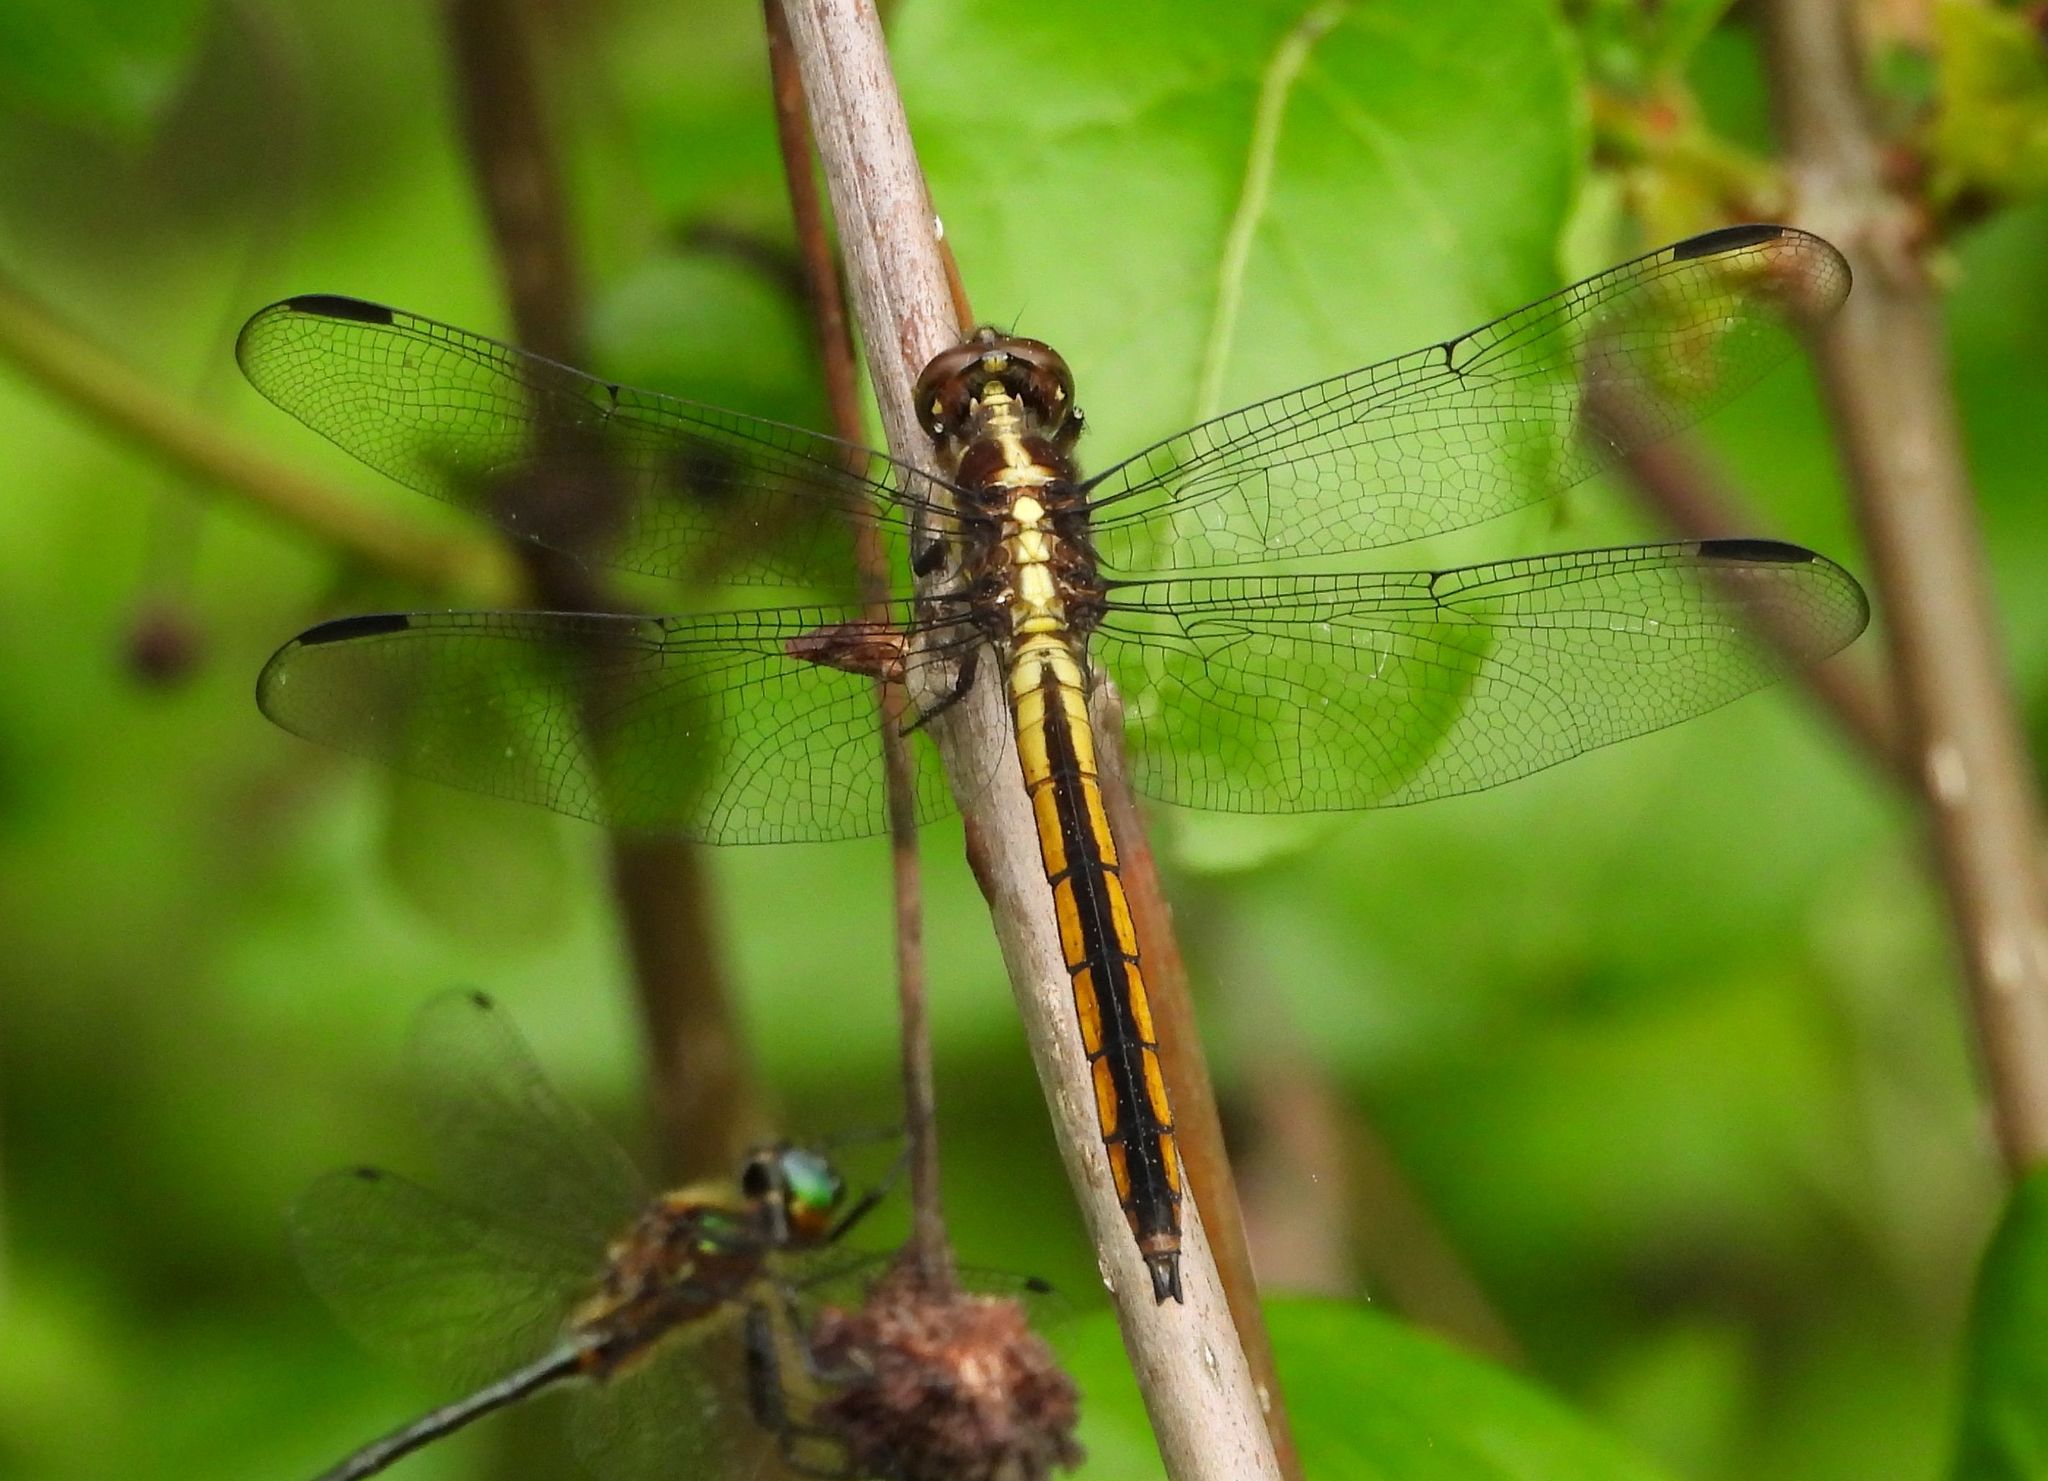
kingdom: Animalia
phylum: Arthropoda
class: Insecta
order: Odonata
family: Libellulidae
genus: Libellula
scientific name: Libellula incesta
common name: Slaty skimmer
